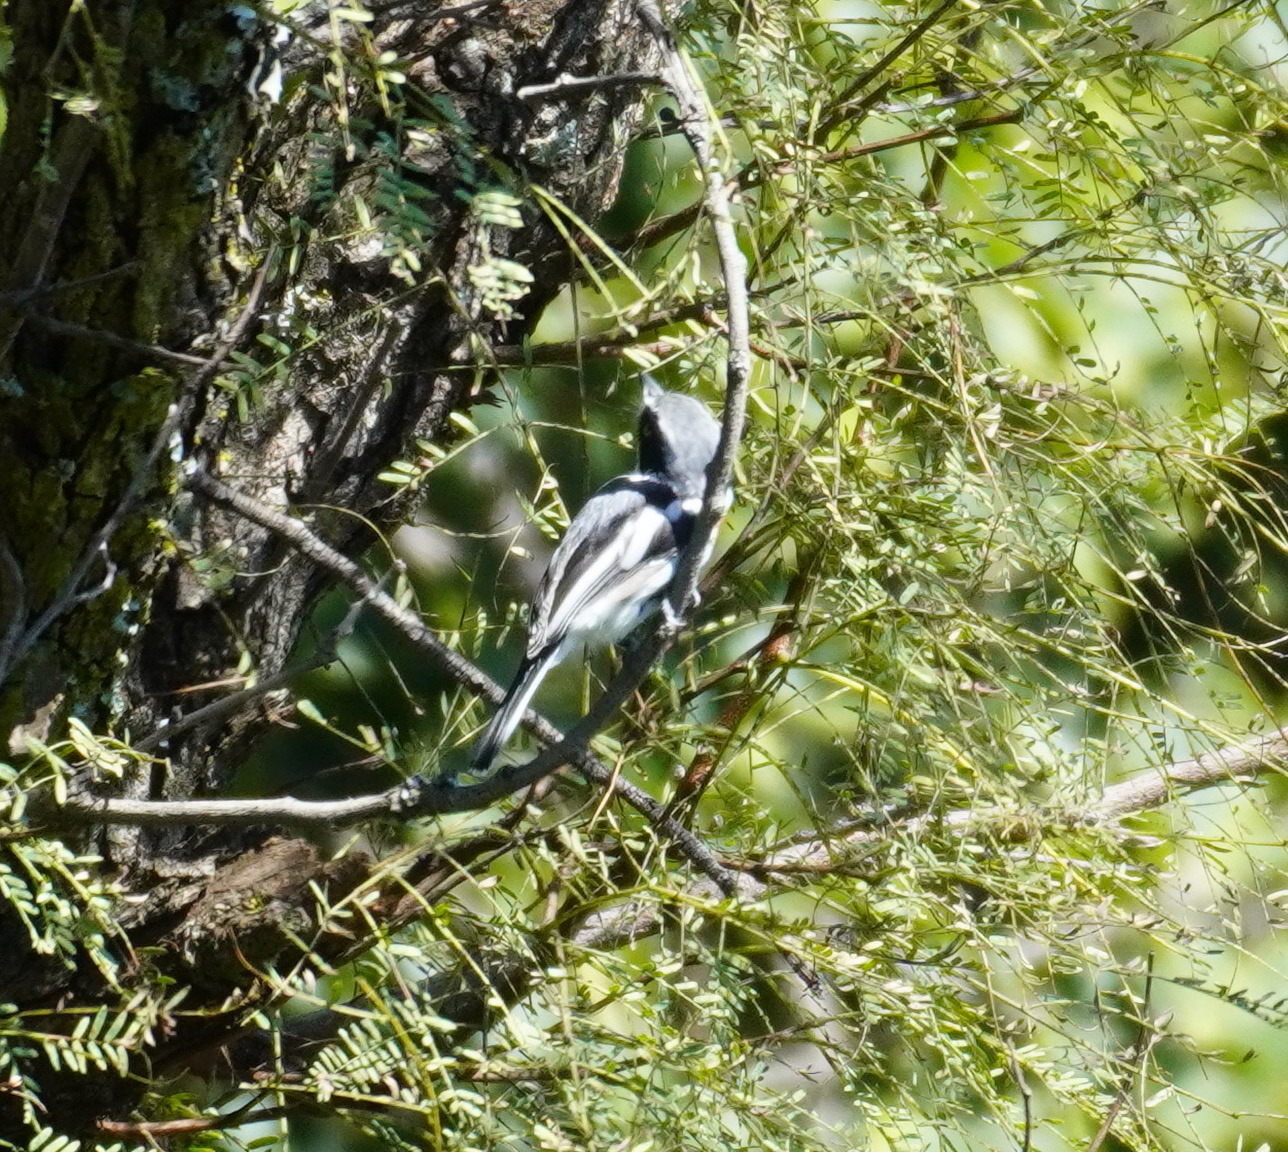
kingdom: Animalia
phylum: Chordata
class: Aves
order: Passeriformes
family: Platysteiridae
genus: Batis
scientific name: Batis molitor
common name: Chinspot batis
